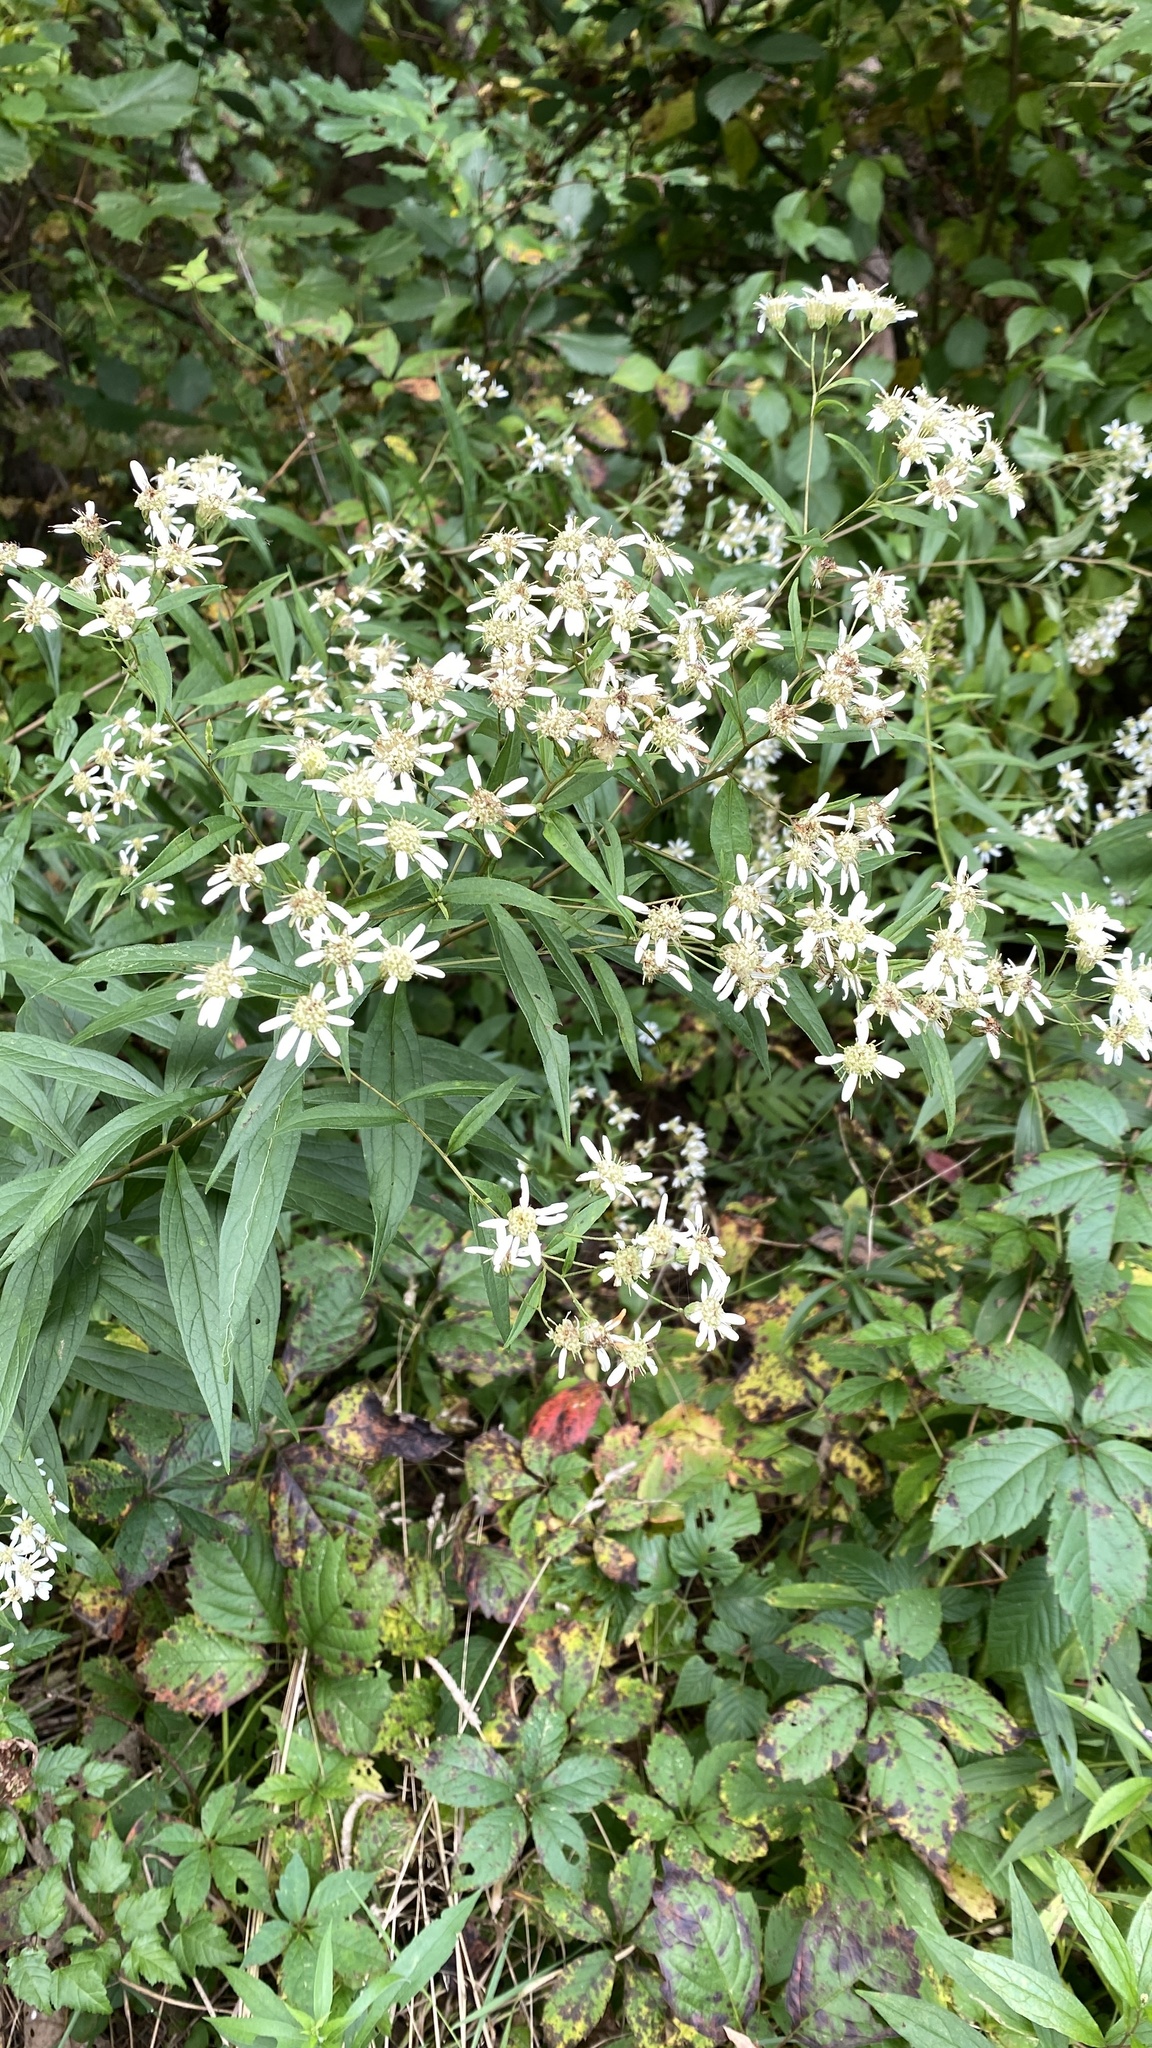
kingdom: Plantae
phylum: Tracheophyta
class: Magnoliopsida
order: Asterales
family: Asteraceae
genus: Doellingeria
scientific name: Doellingeria umbellata
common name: Flat-top white aster
